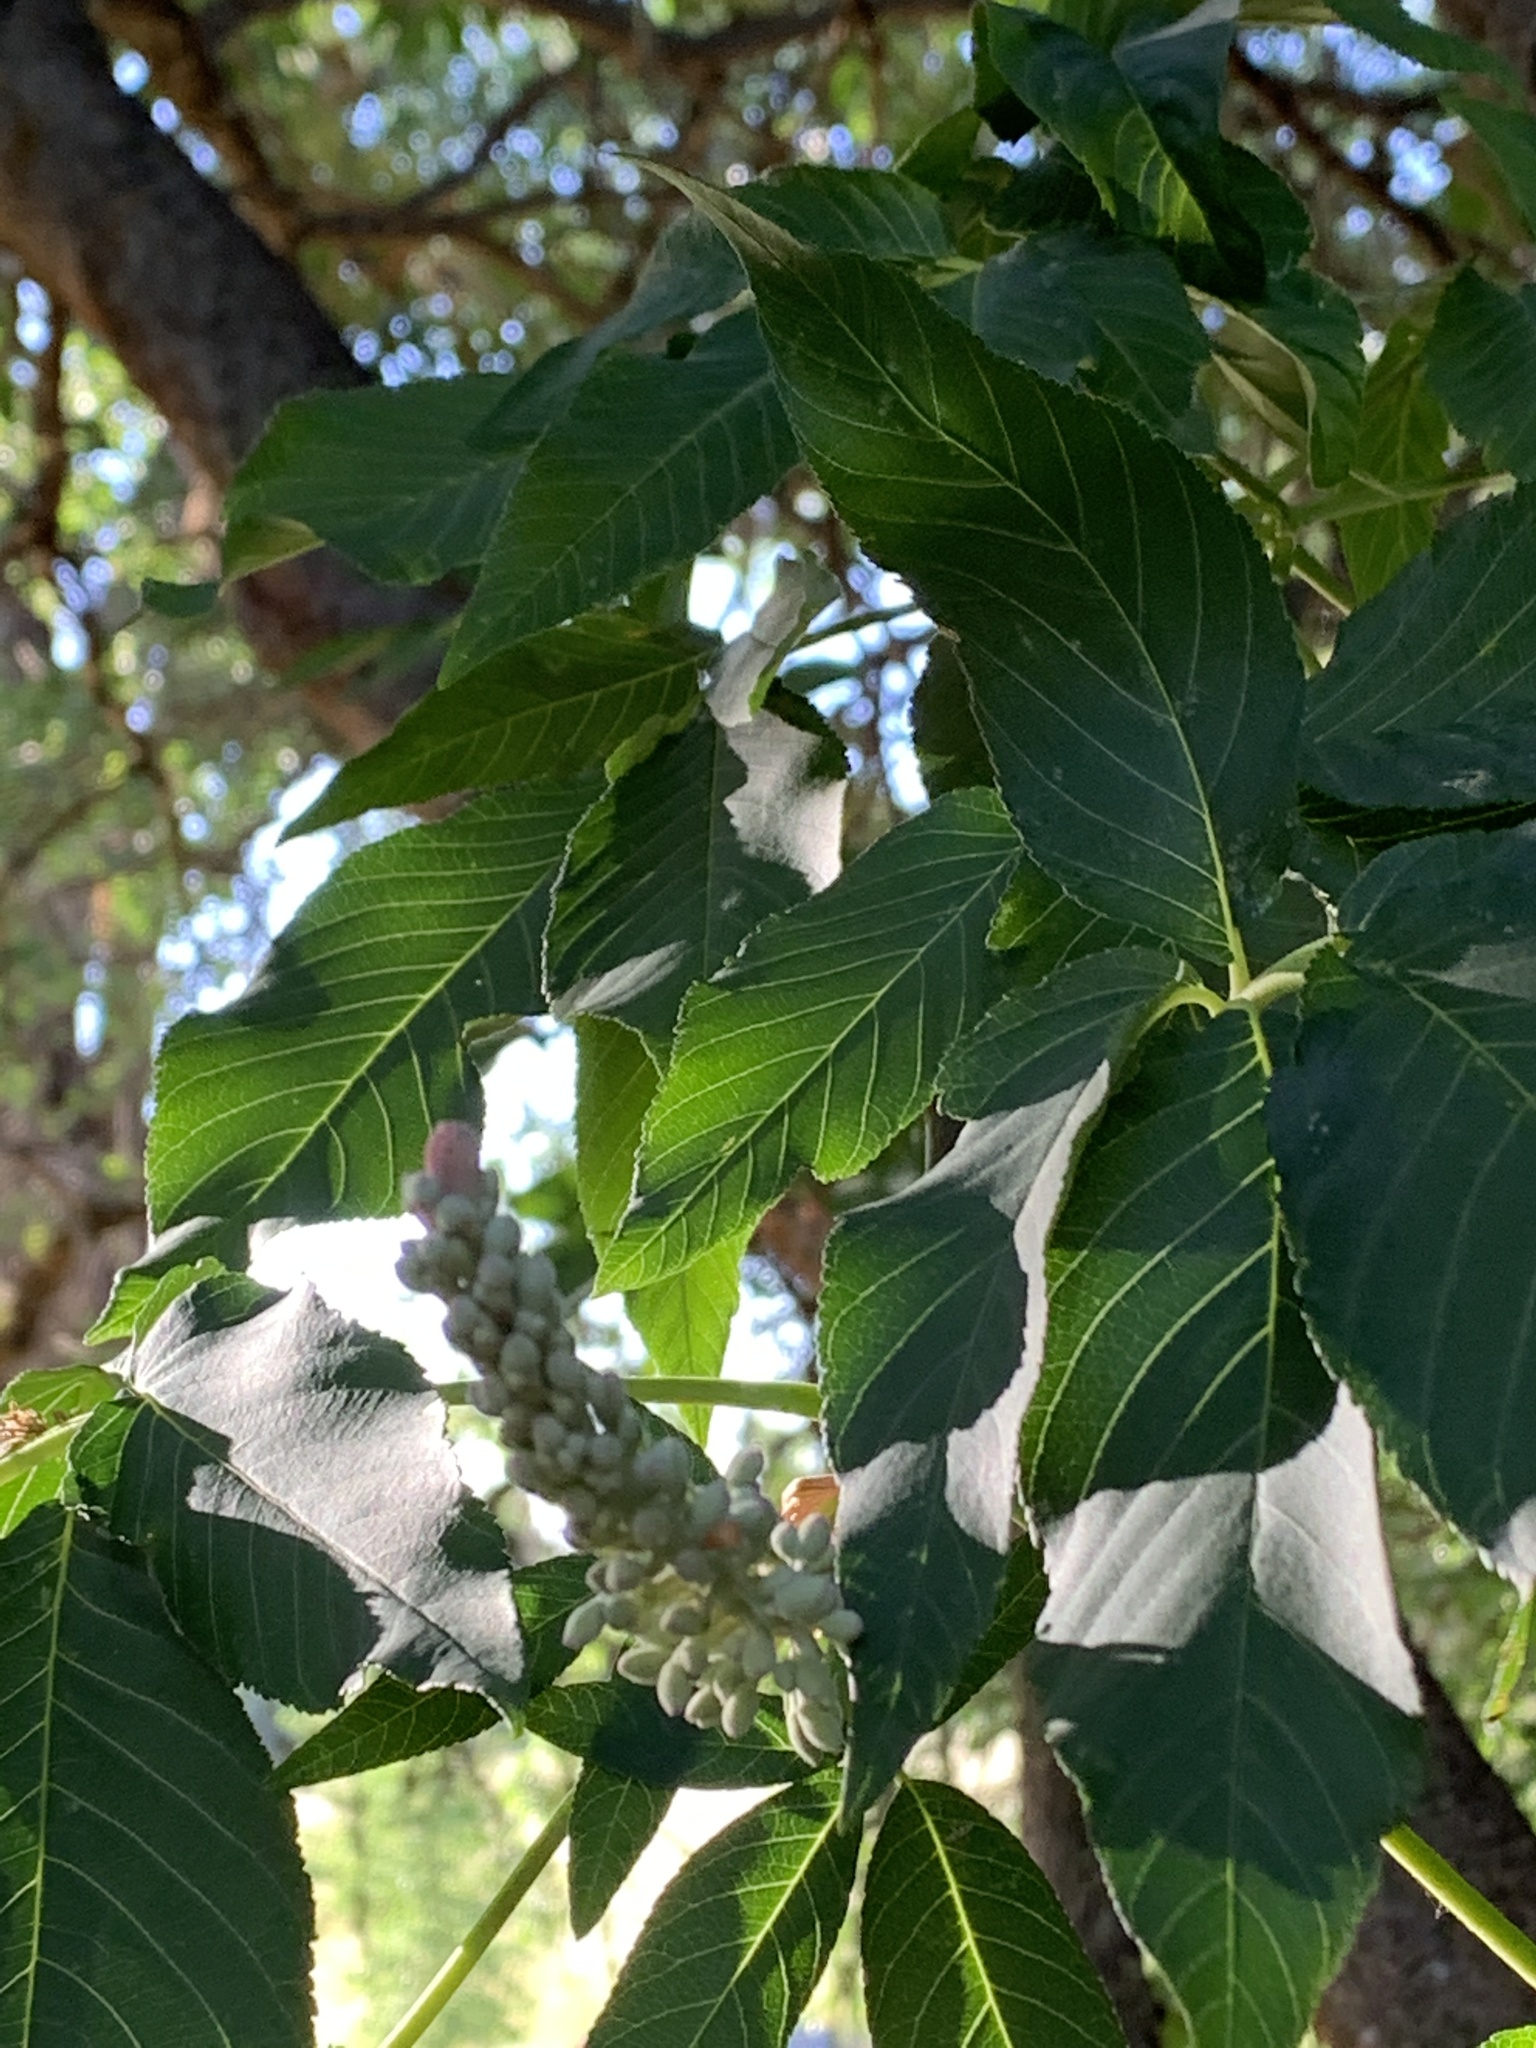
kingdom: Plantae
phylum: Tracheophyta
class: Magnoliopsida
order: Sapindales
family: Sapindaceae
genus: Aesculus
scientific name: Aesculus californica
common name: California buckeye
